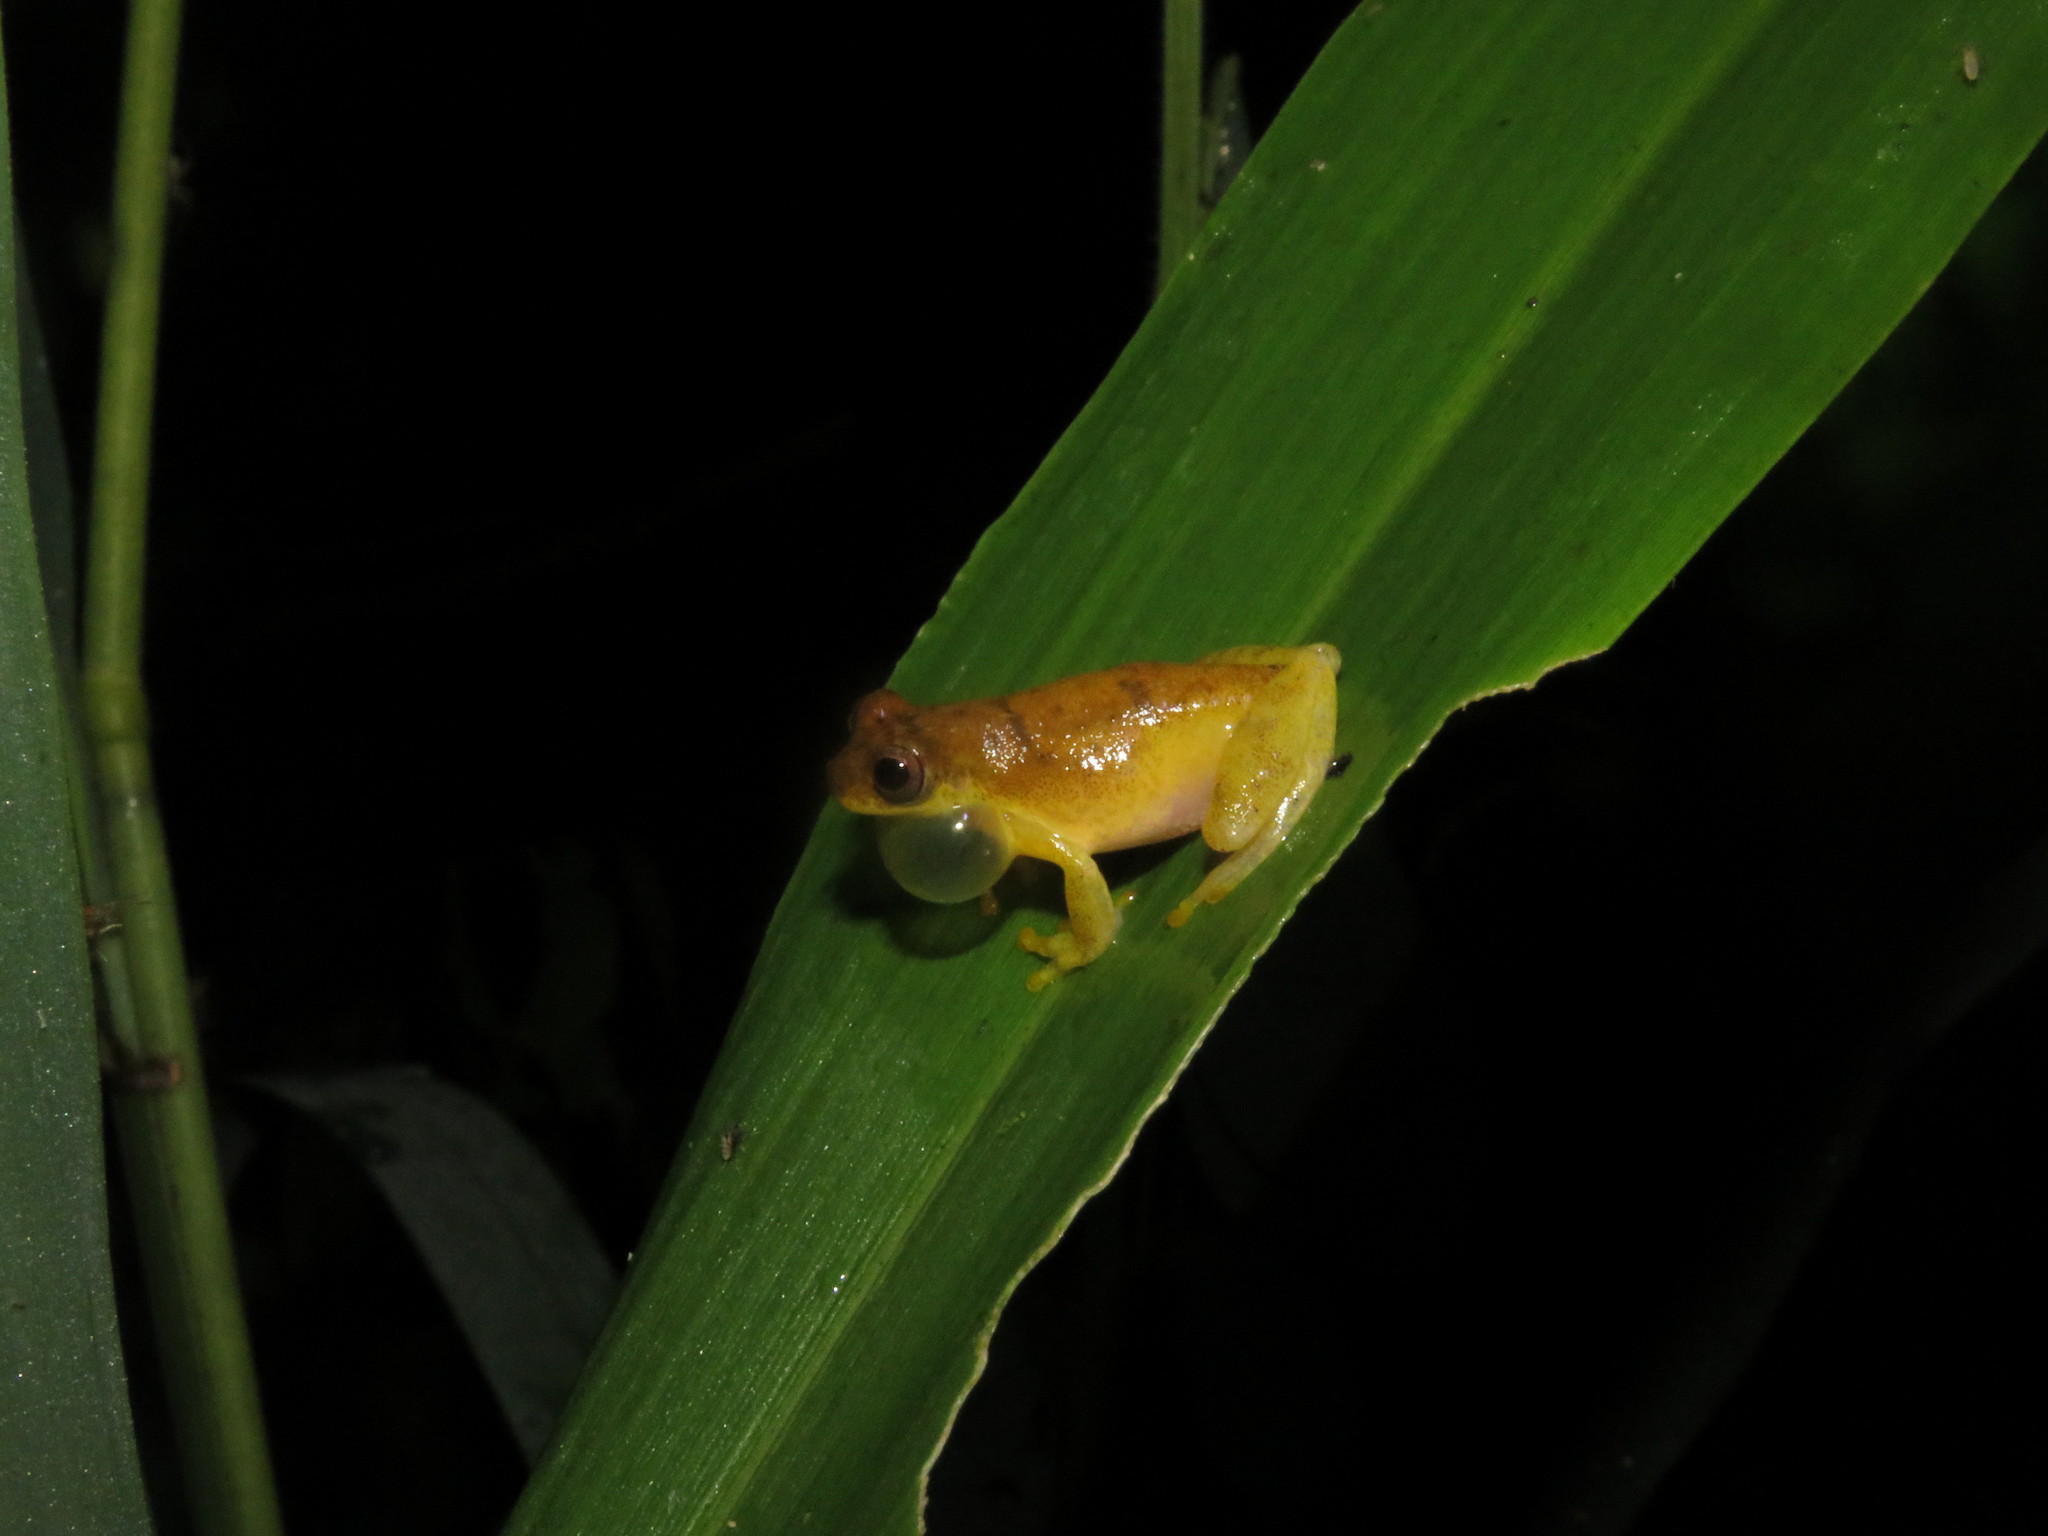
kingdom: Animalia
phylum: Chordata
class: Amphibia
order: Anura
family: Hylidae
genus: Dendropsophus
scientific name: Dendropsophus leali
